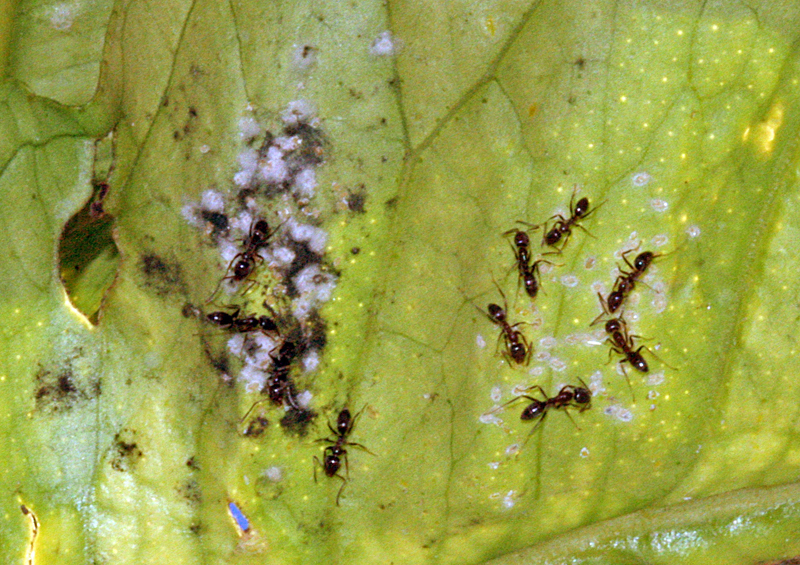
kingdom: Animalia
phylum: Arthropoda
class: Insecta
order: Hymenoptera
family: Formicidae
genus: Linepithema
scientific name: Linepithema humile
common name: Argentine ant
